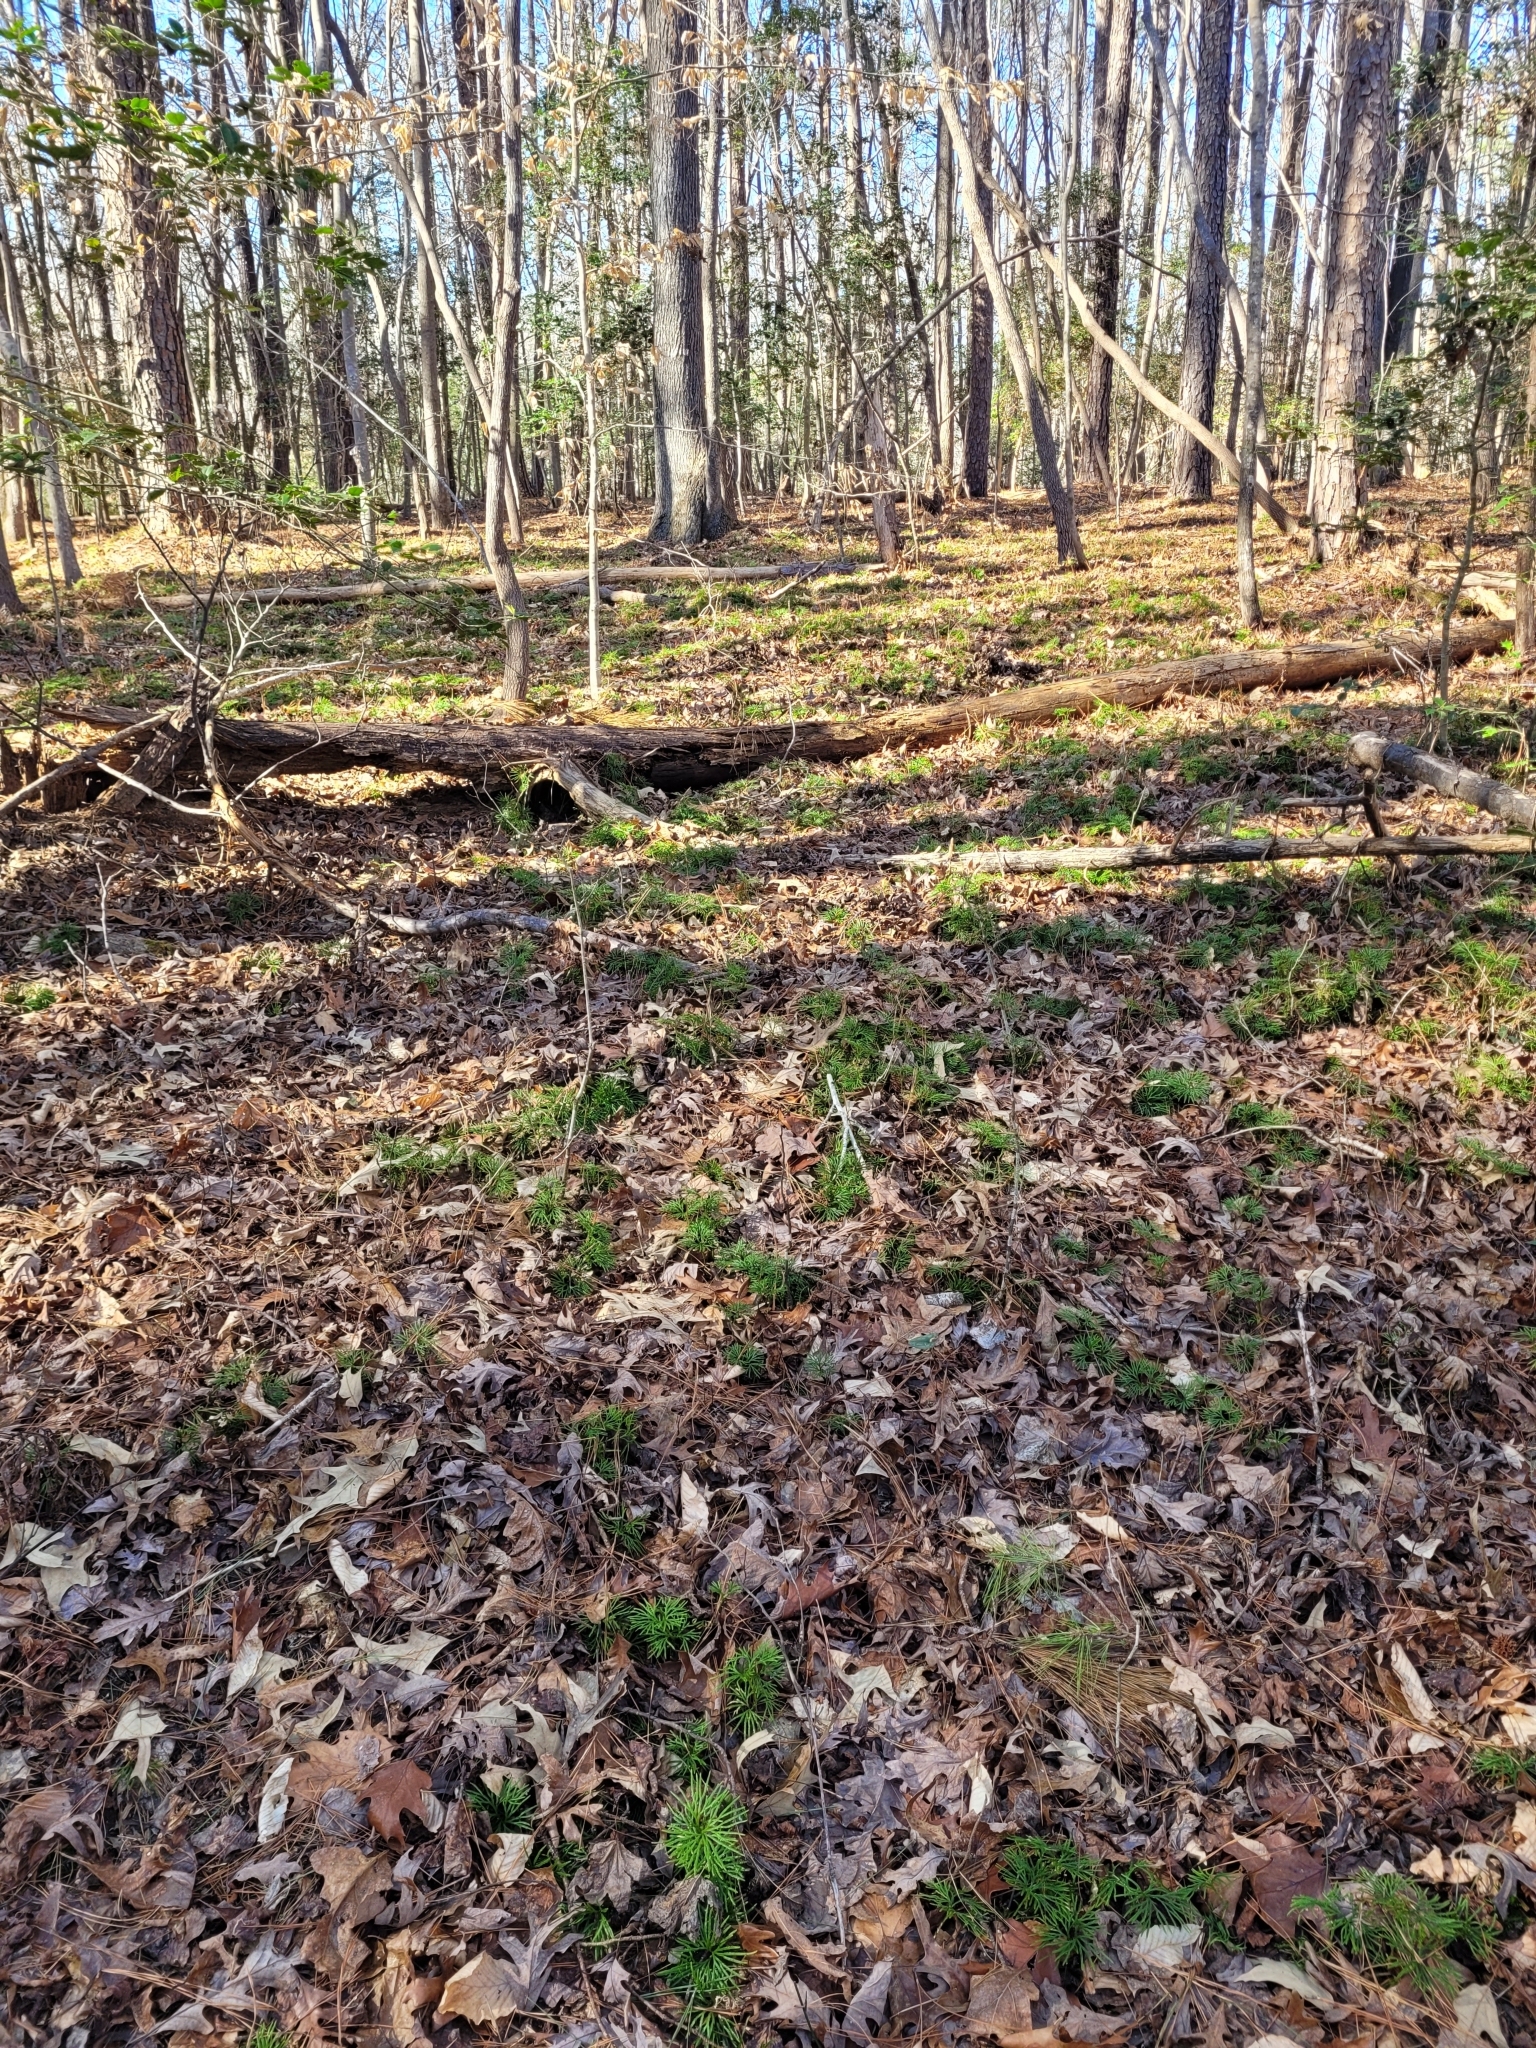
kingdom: Plantae
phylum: Tracheophyta
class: Lycopodiopsida
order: Lycopodiales
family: Lycopodiaceae
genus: Diphasiastrum
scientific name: Diphasiastrum digitatum
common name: Southern running-pine
